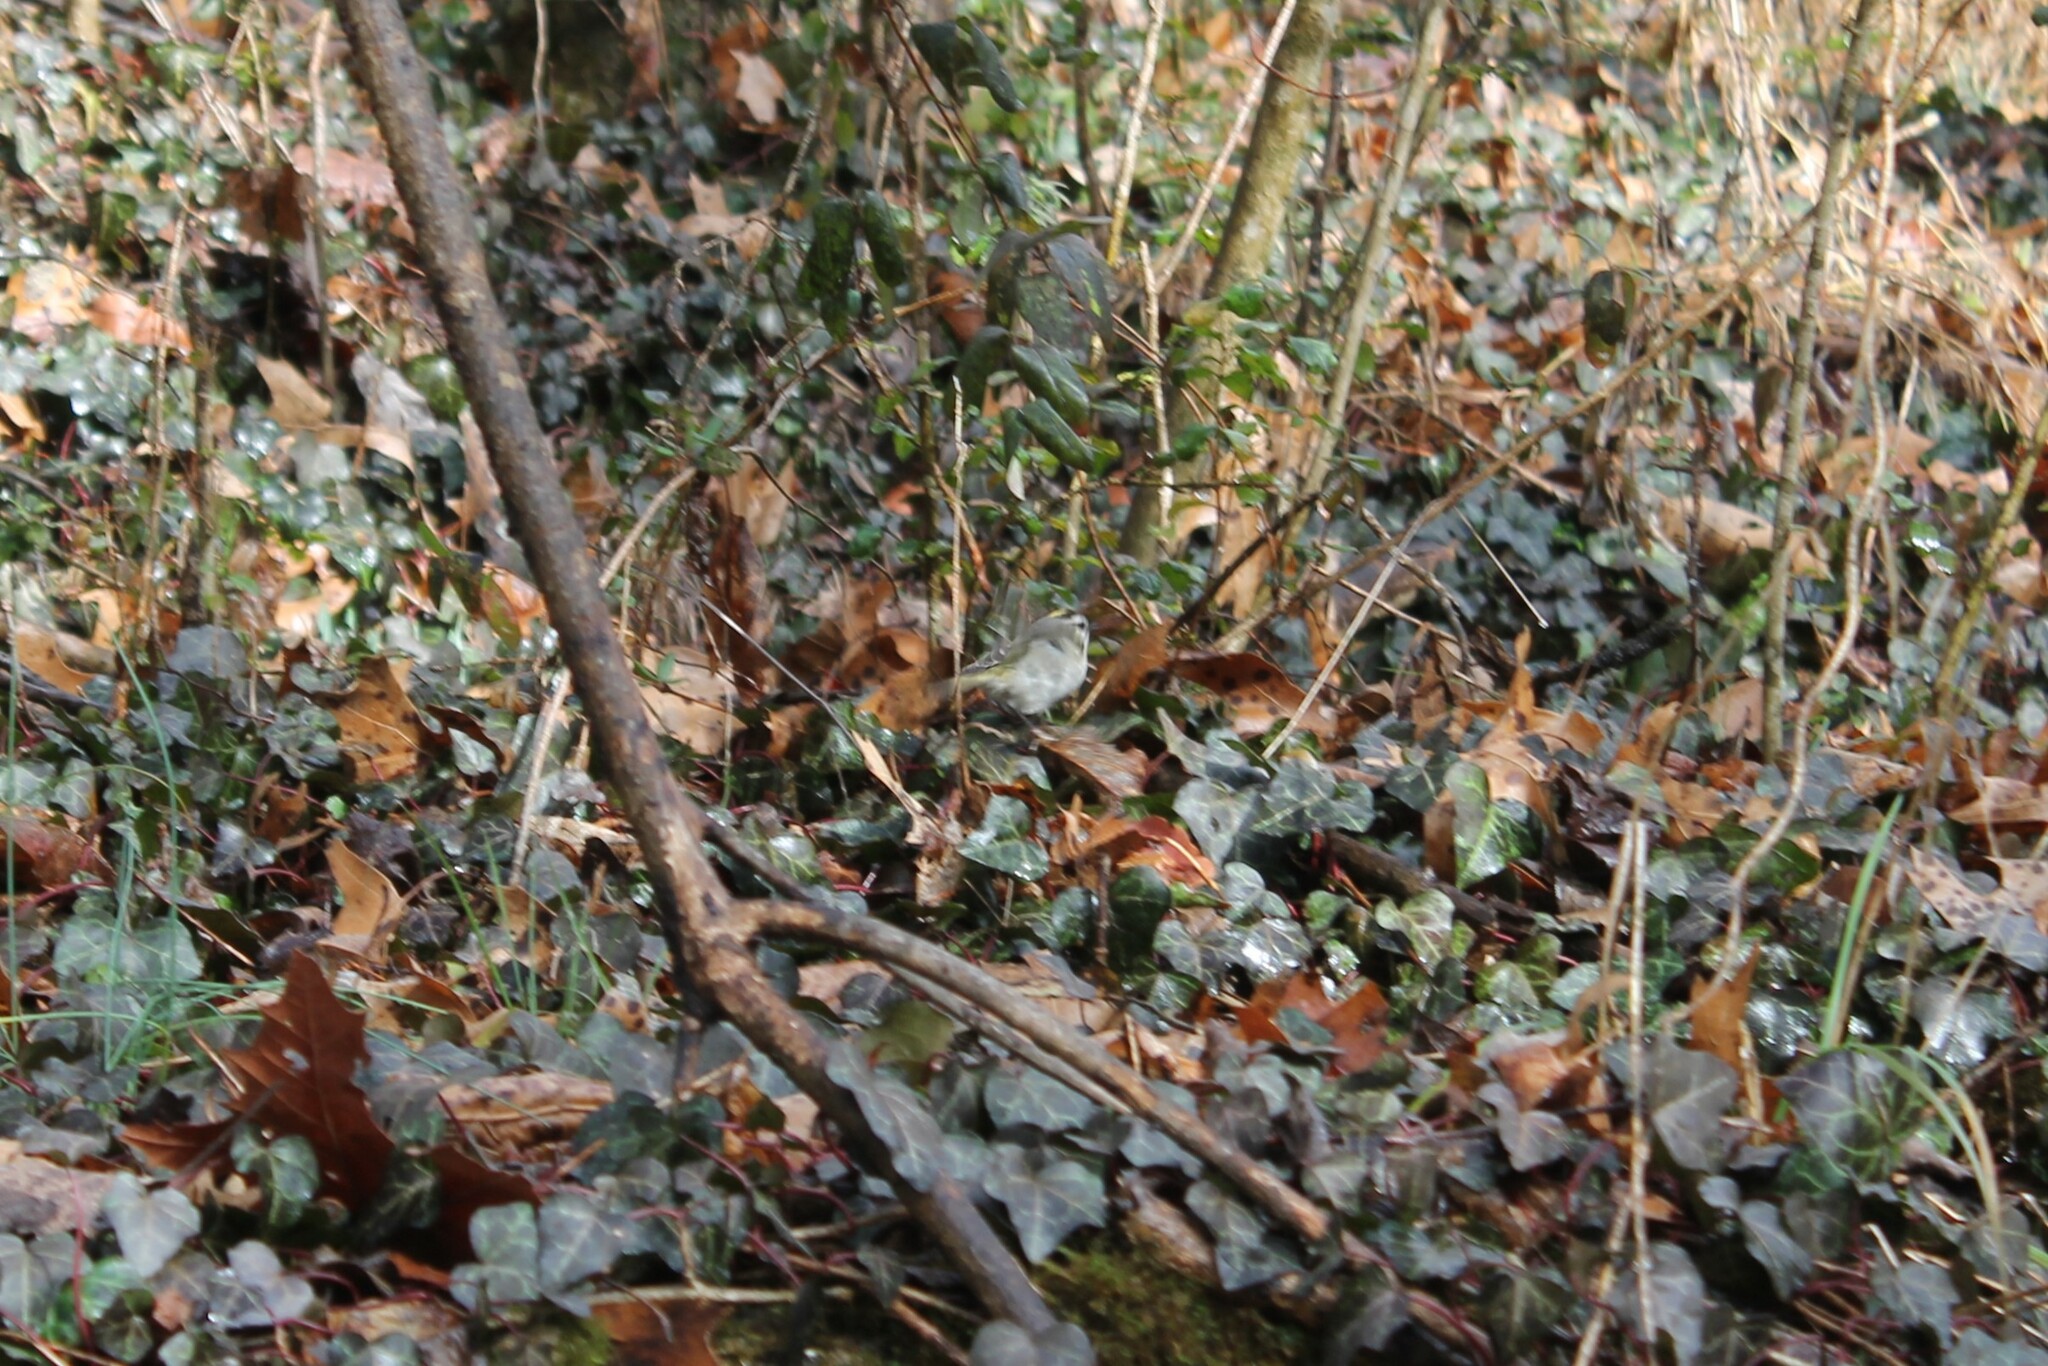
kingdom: Animalia
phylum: Chordata
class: Aves
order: Passeriformes
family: Regulidae
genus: Regulus
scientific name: Regulus satrapa
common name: Golden-crowned kinglet
